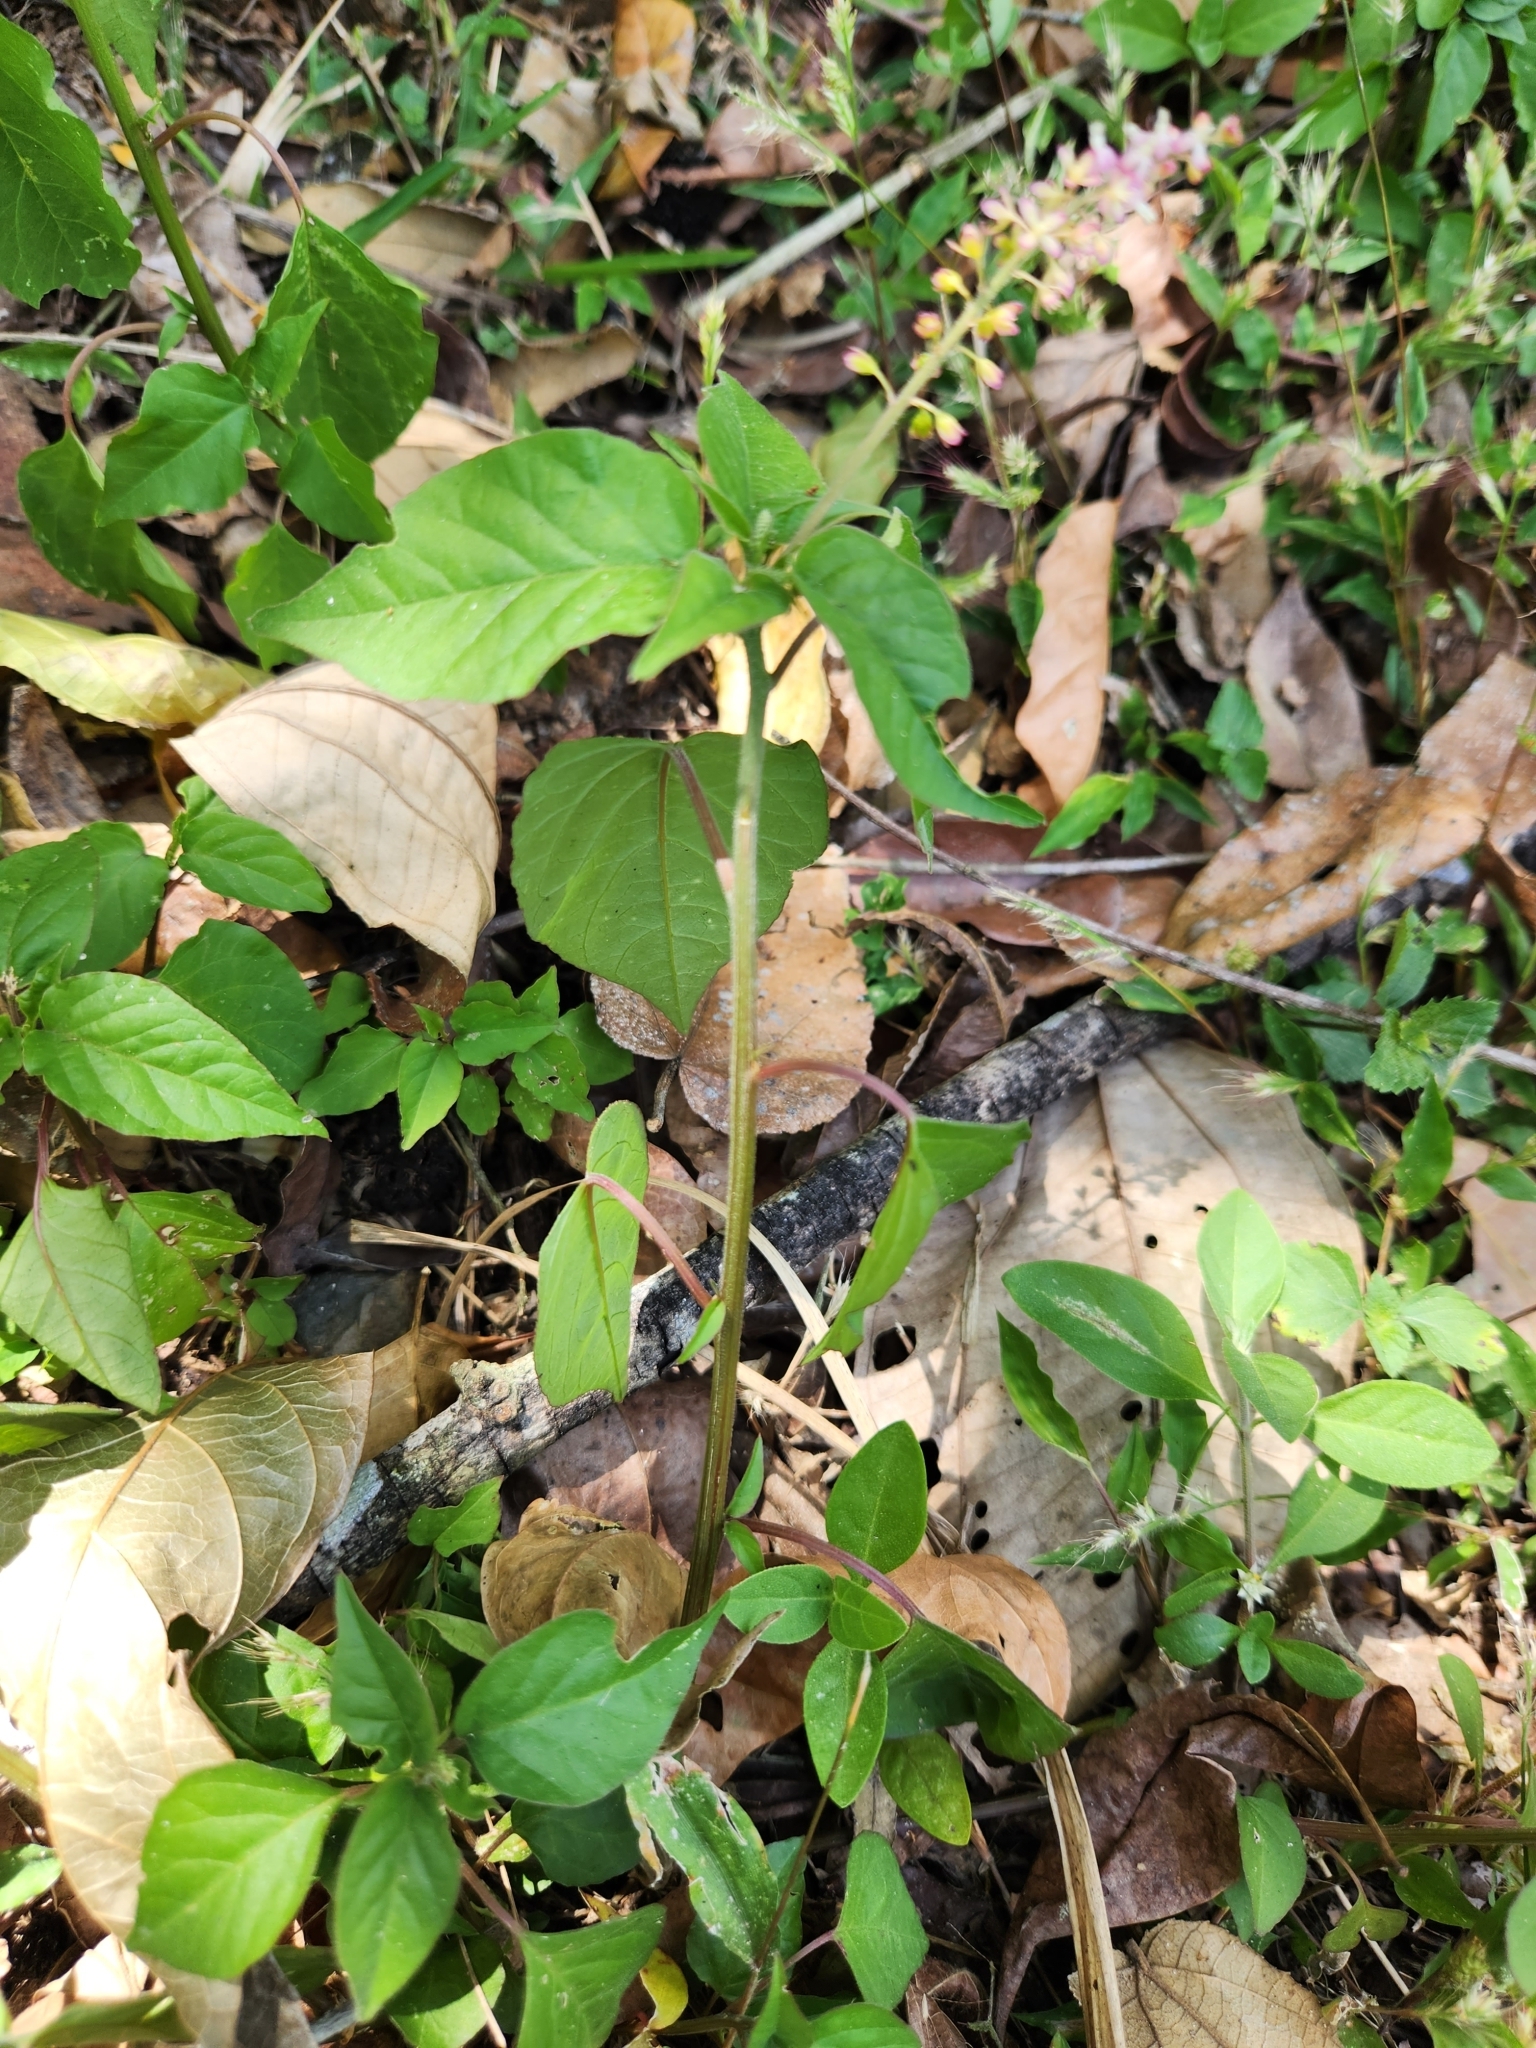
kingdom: Plantae
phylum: Tracheophyta
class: Magnoliopsida
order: Caryophyllales
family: Phytolaccaceae
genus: Rivina
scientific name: Rivina humilis
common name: Rougeplant
